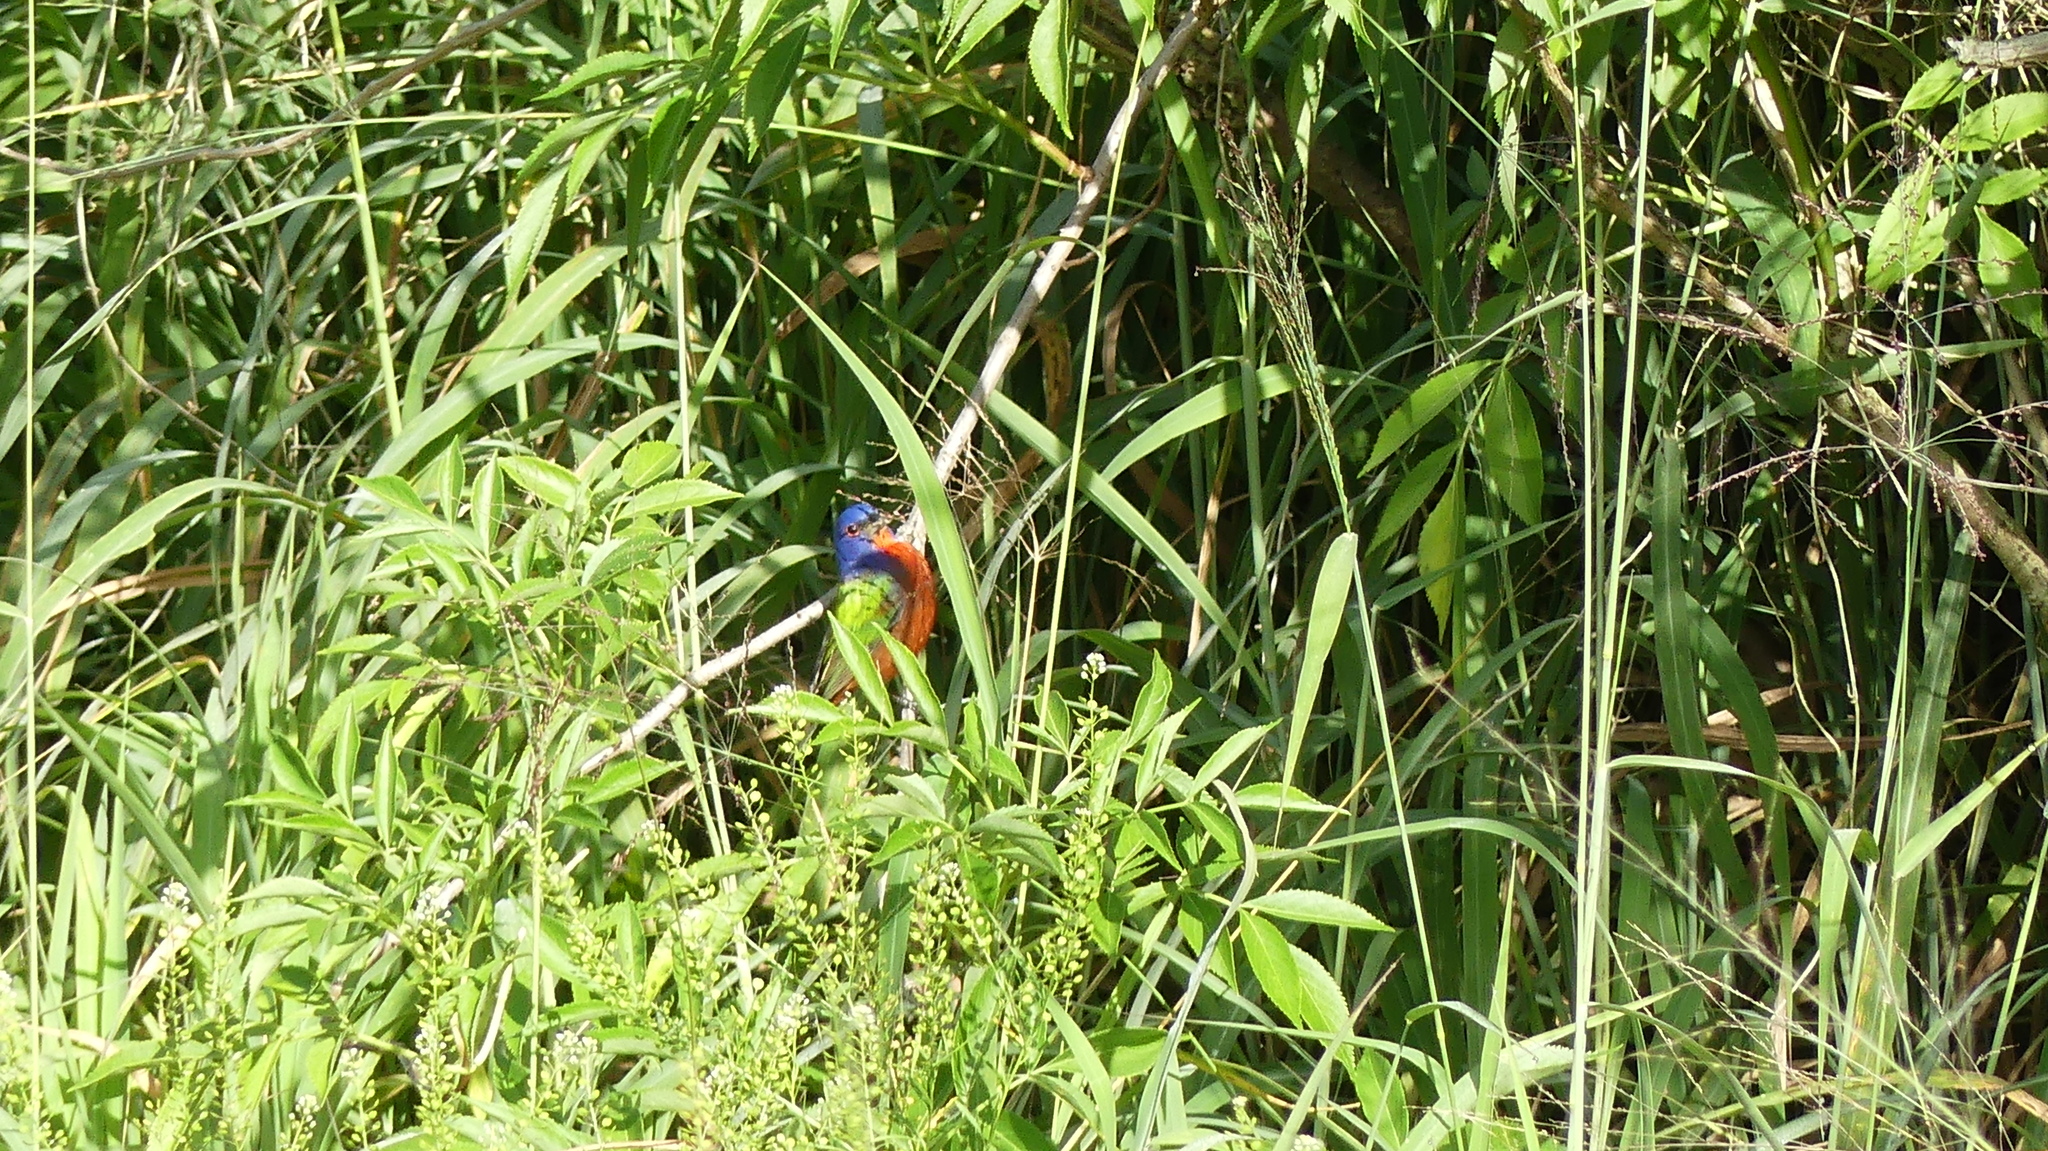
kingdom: Animalia
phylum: Chordata
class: Aves
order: Passeriformes
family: Cardinalidae
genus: Passerina
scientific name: Passerina ciris
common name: Painted bunting
